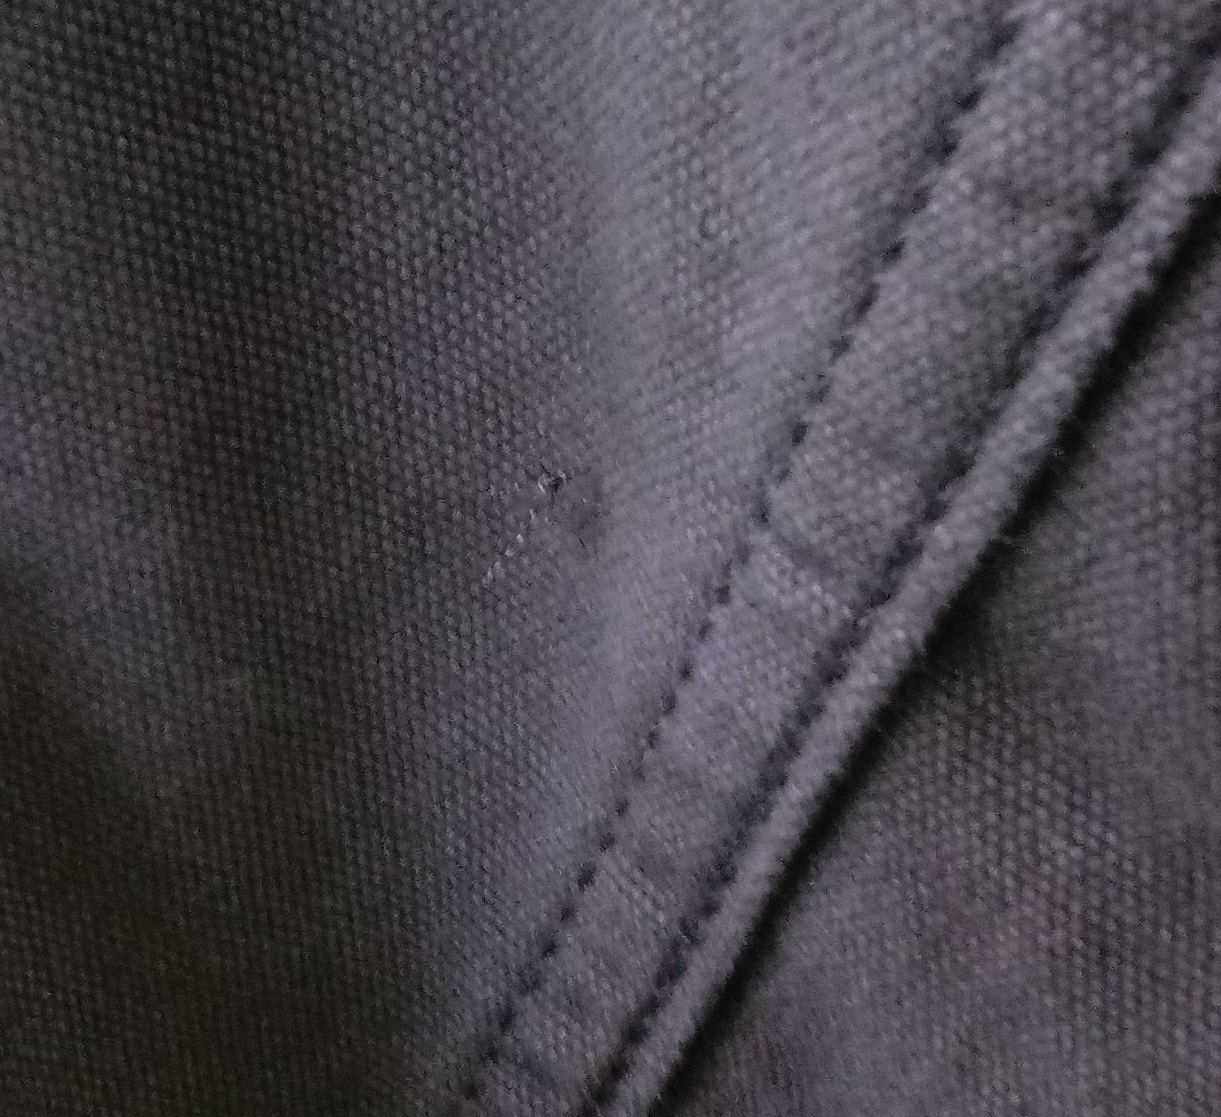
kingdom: Animalia
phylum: Arthropoda
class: Insecta
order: Diptera
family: Culicidae
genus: Aedes
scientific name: Aedes albopictus
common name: Tiger mosquito
